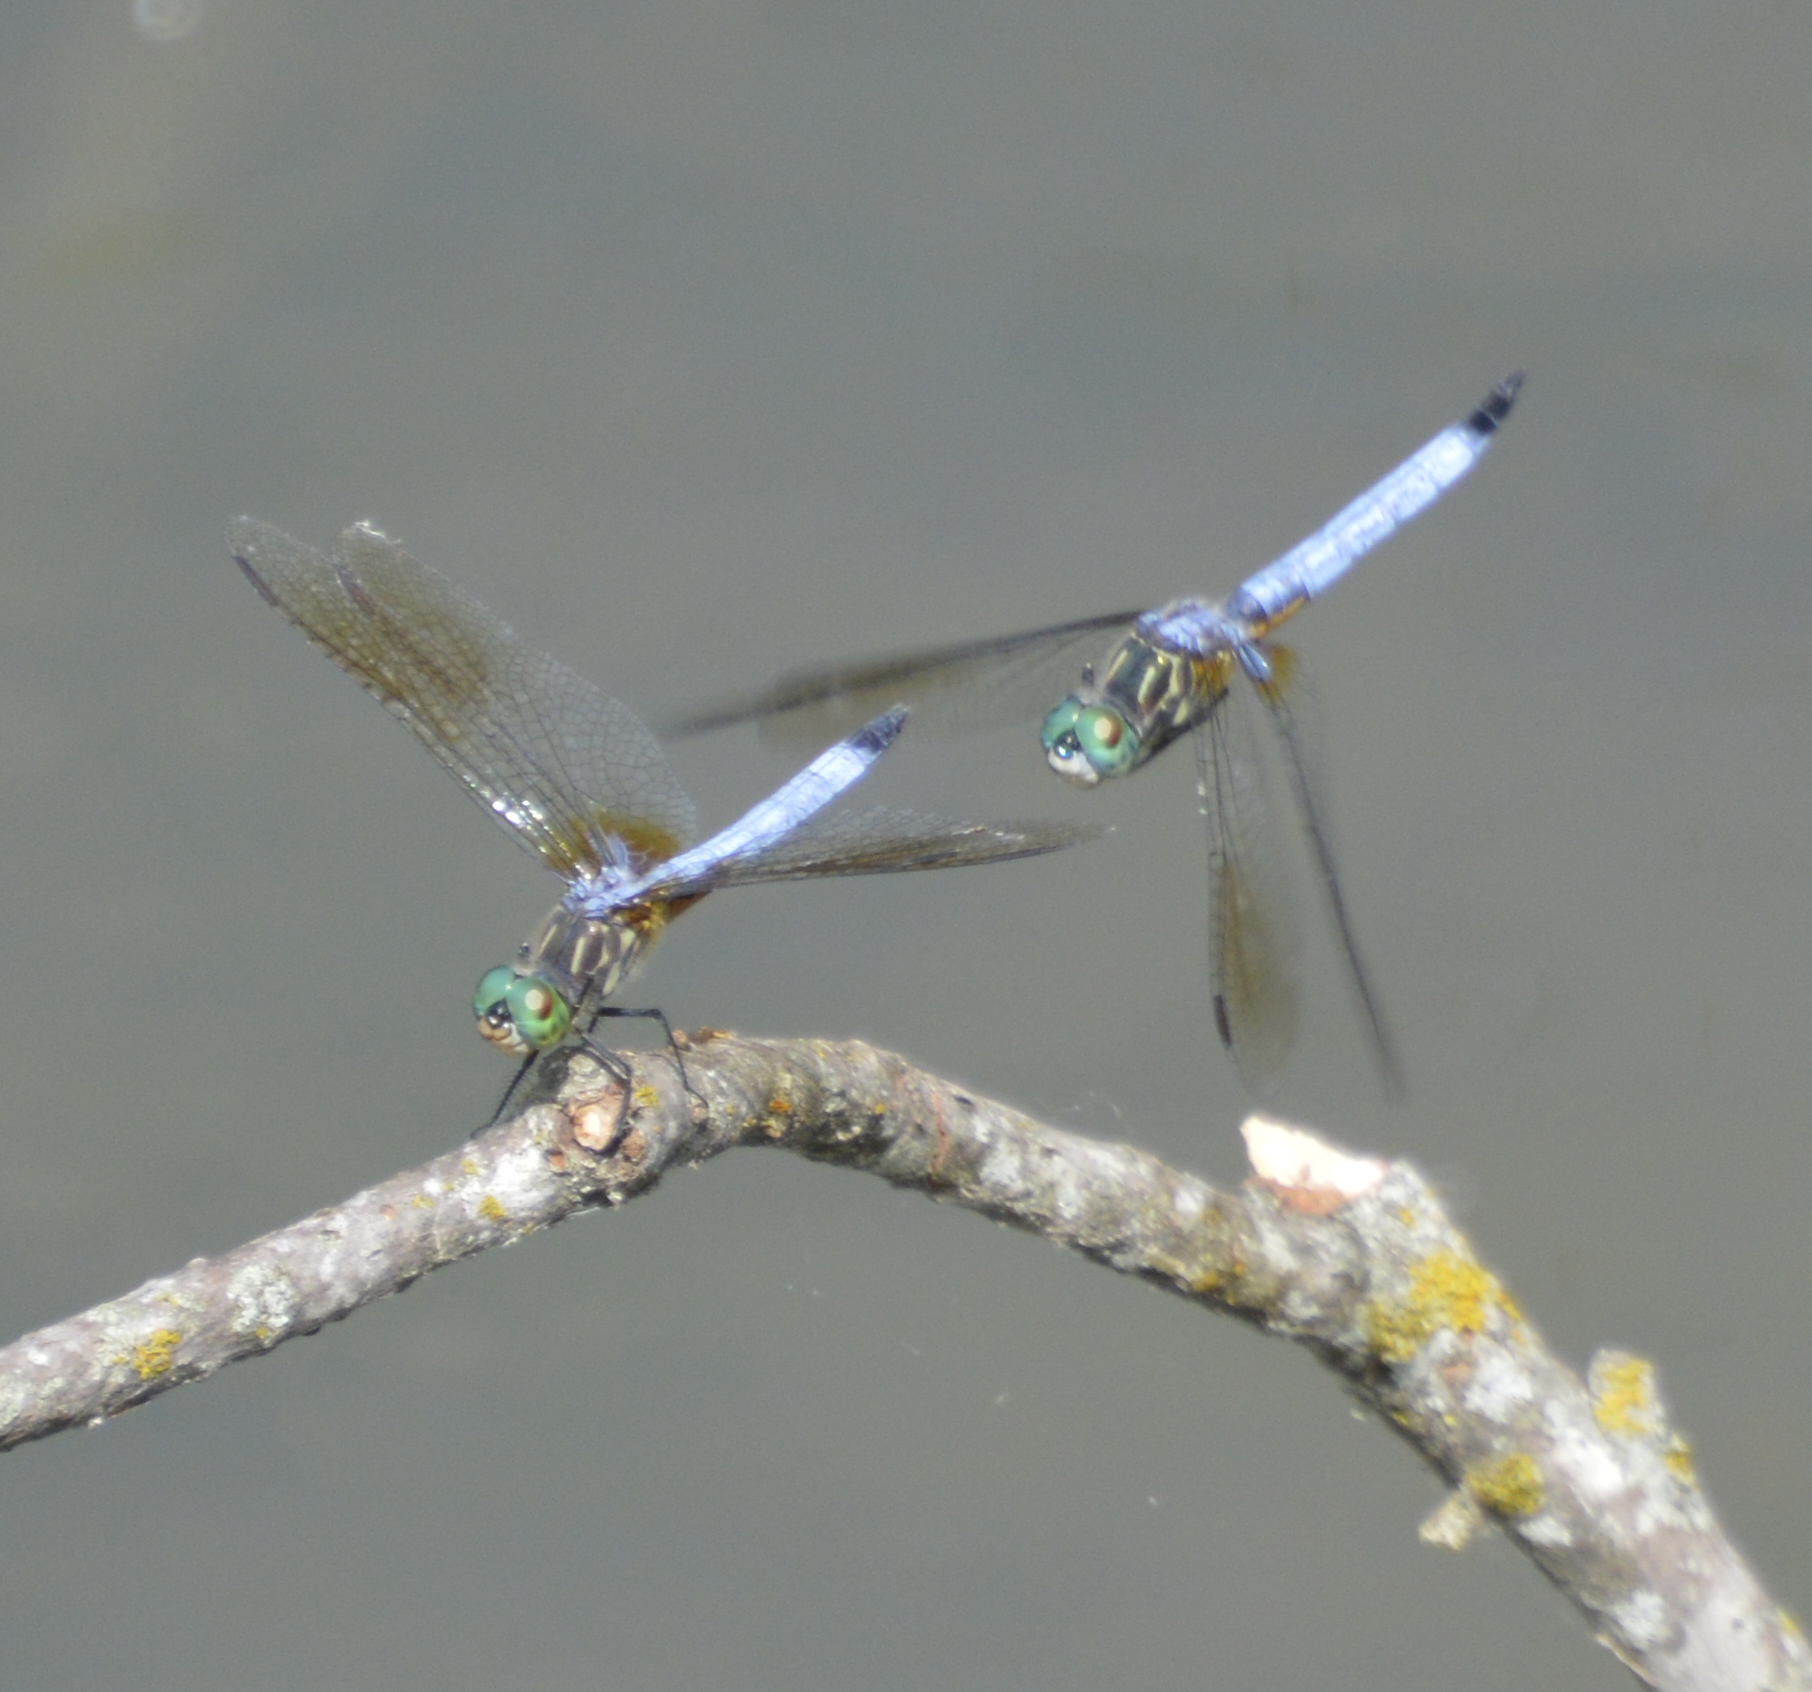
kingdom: Animalia
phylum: Arthropoda
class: Insecta
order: Odonata
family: Libellulidae
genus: Pachydiplax
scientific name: Pachydiplax longipennis
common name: Blue dasher
